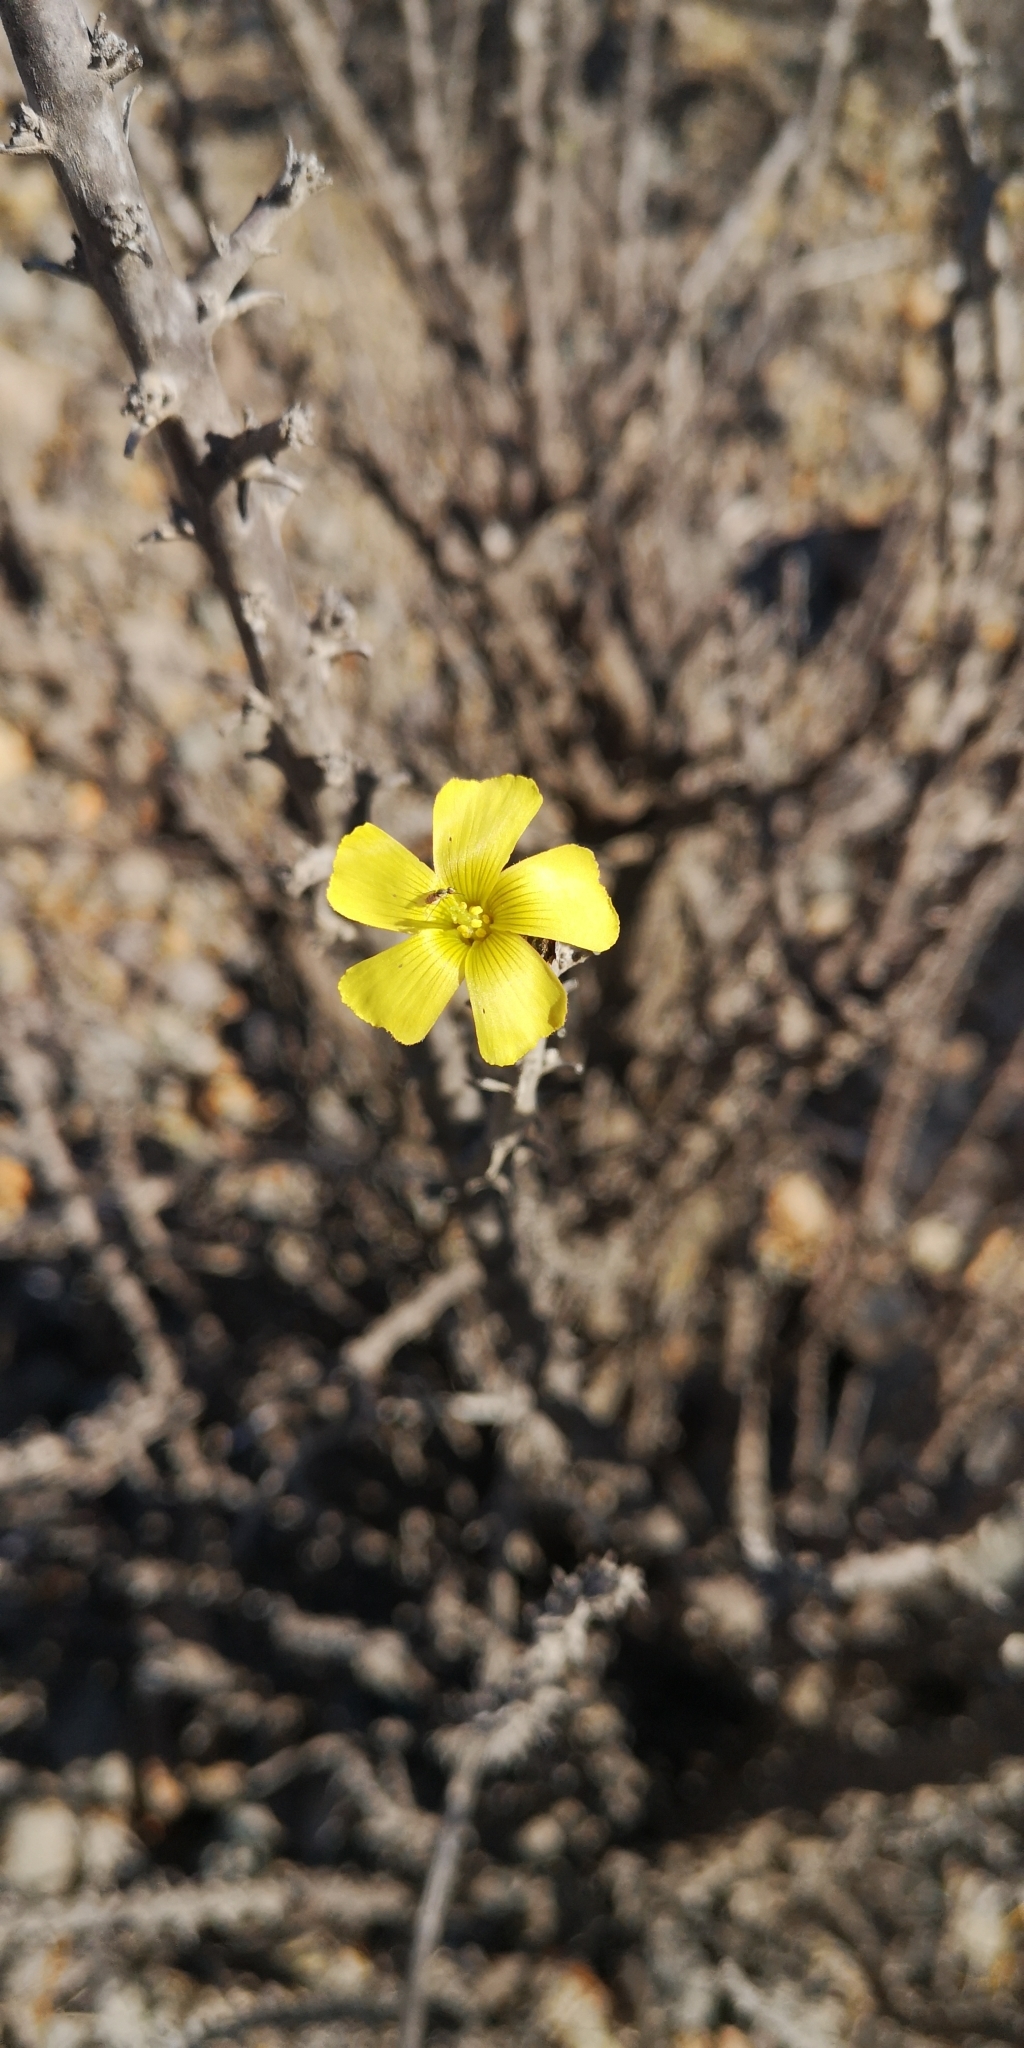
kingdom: Plantae
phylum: Tracheophyta
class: Magnoliopsida
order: Oxalidales
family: Oxalidaceae
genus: Oxalis
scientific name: Oxalis gigantea
